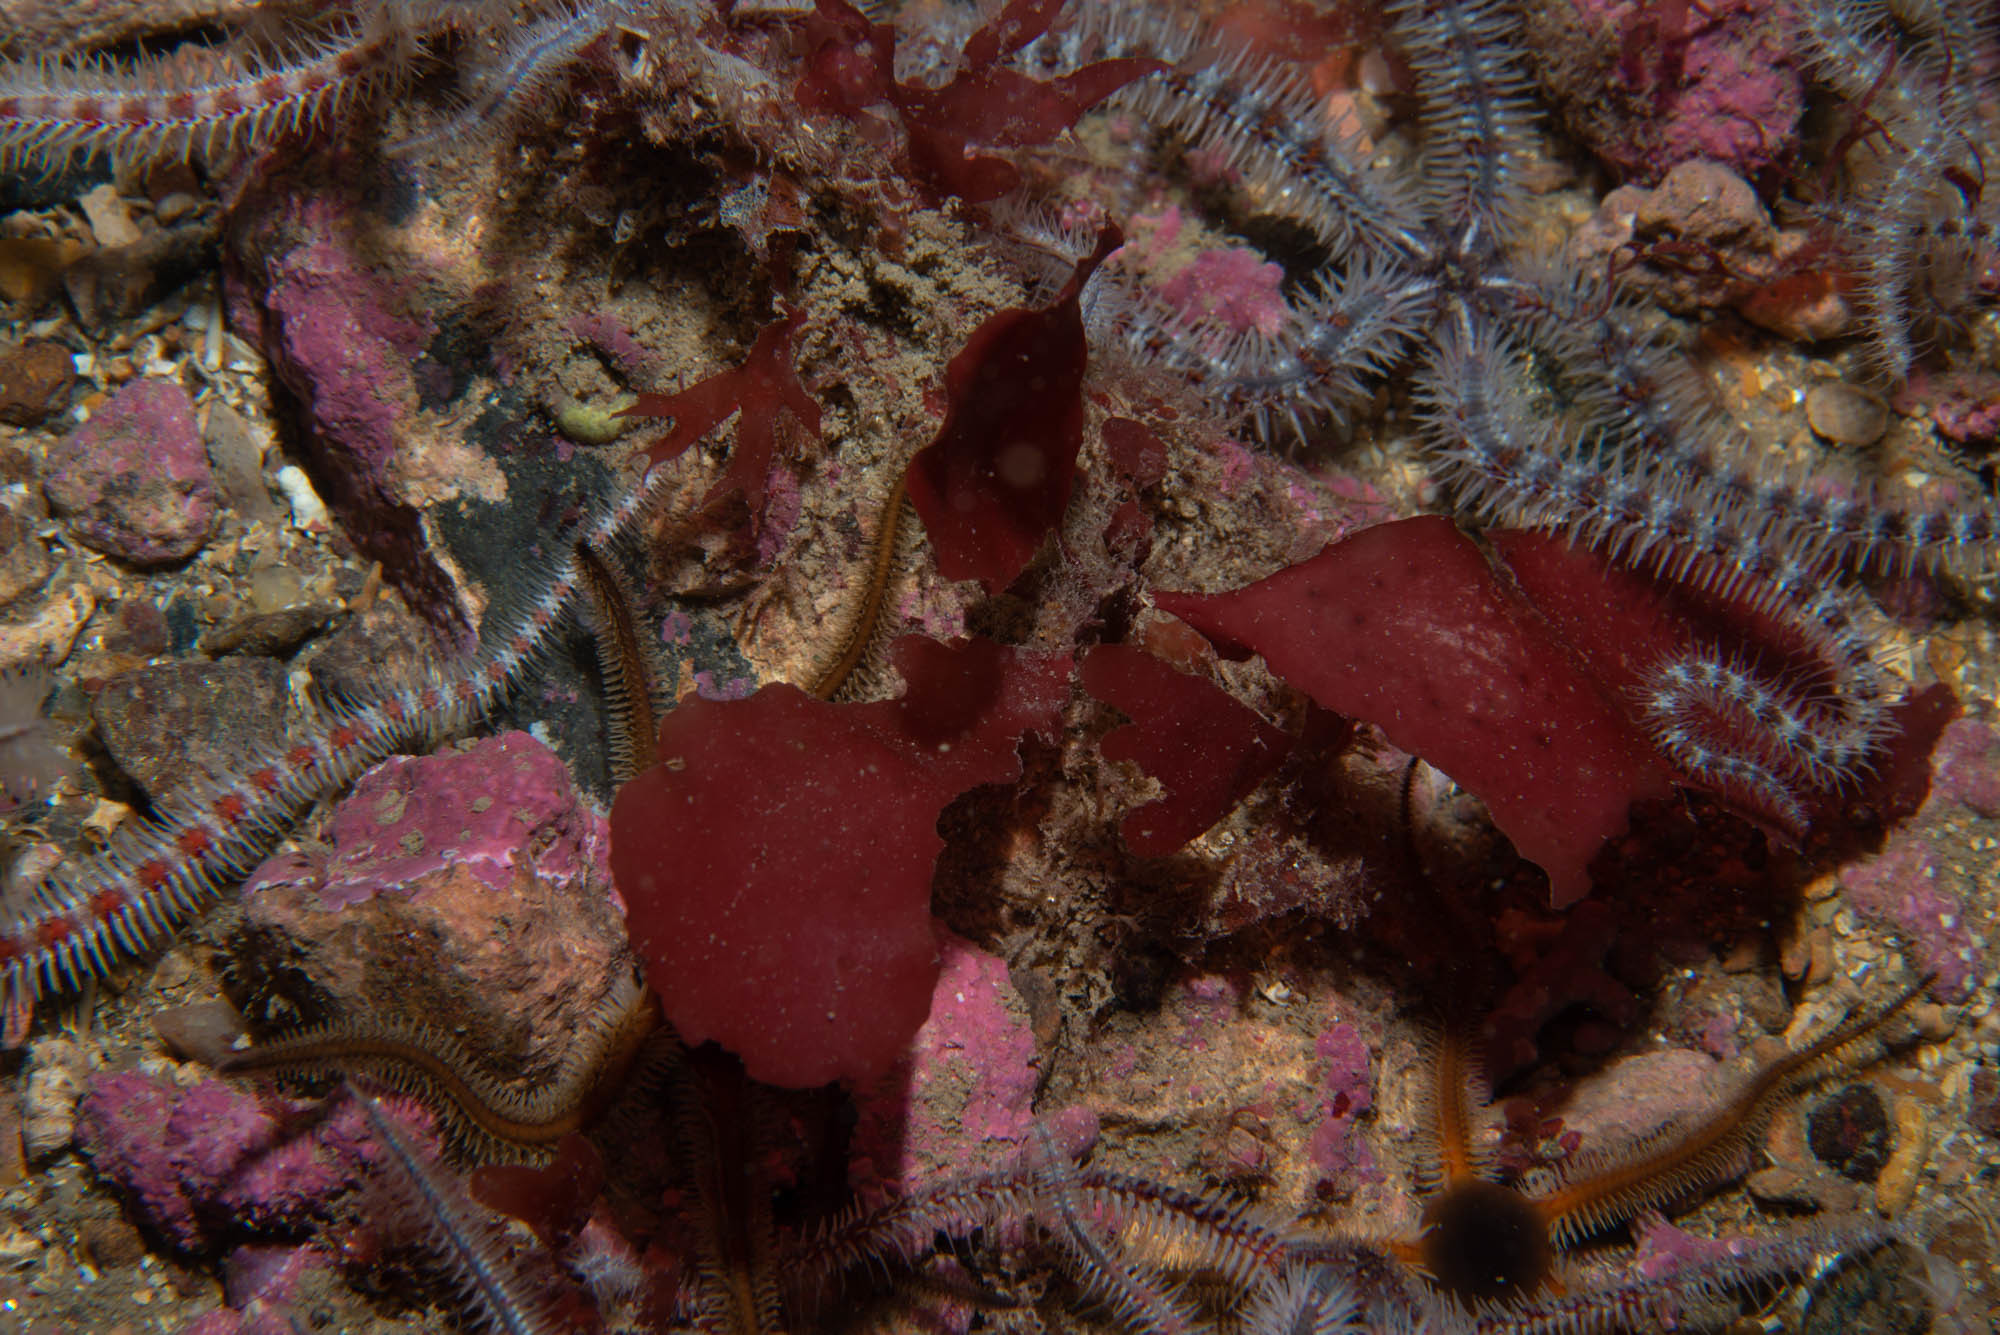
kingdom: Plantae
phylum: Rhodophyta
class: Florideophyceae
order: Gigartinales
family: Kallymeniaceae
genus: Kallymenia
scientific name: Kallymenia reniformis
